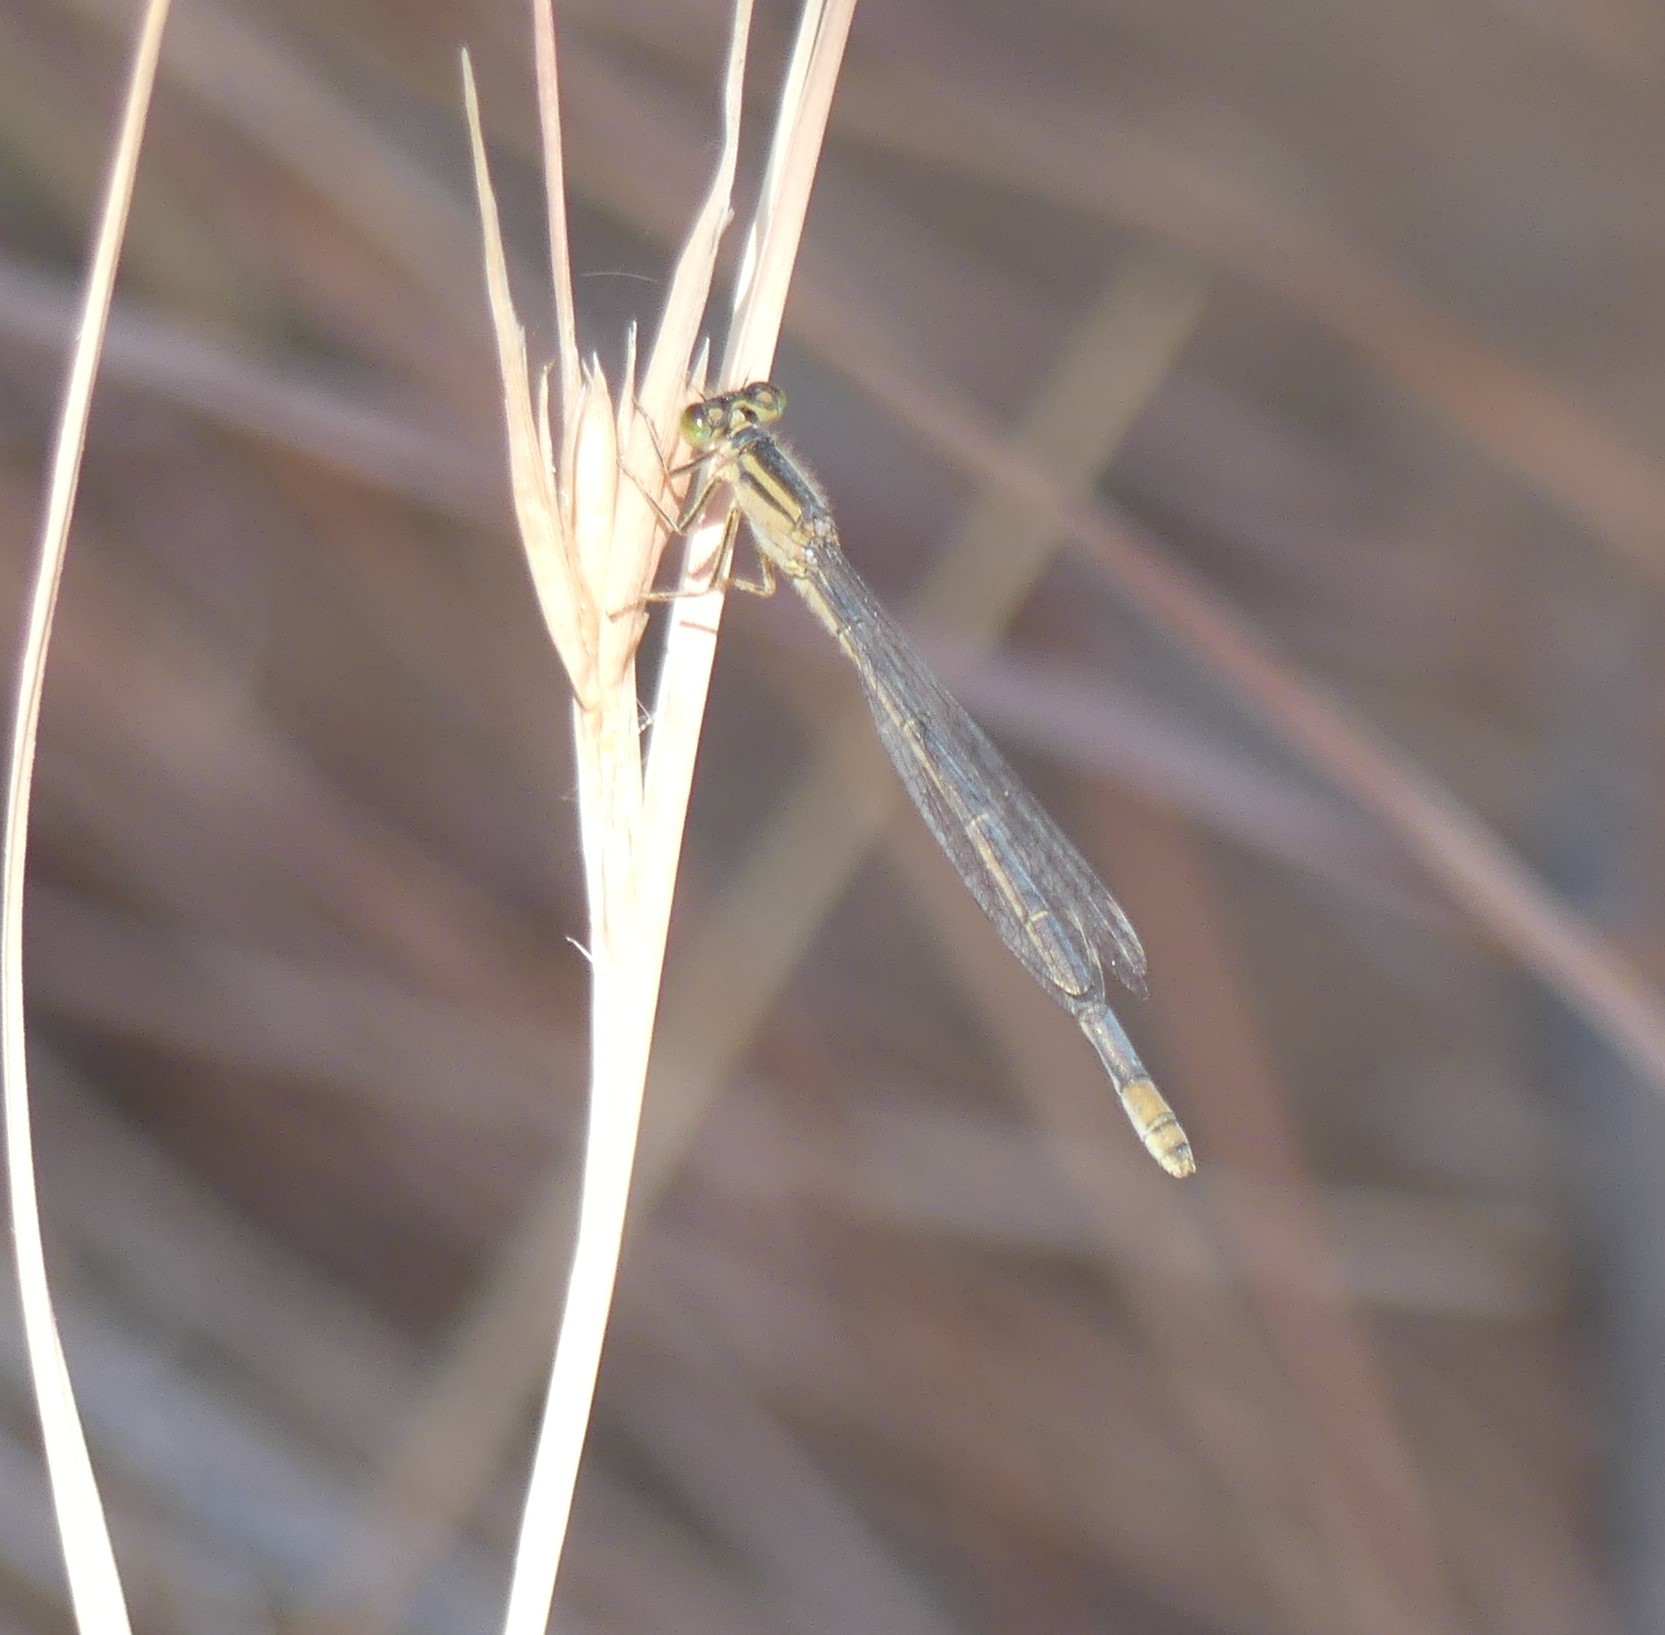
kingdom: Animalia
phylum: Arthropoda
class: Insecta
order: Odonata
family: Coenagrionidae
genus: Ischnura
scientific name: Ischnura heterosticta
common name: Common bluetail
